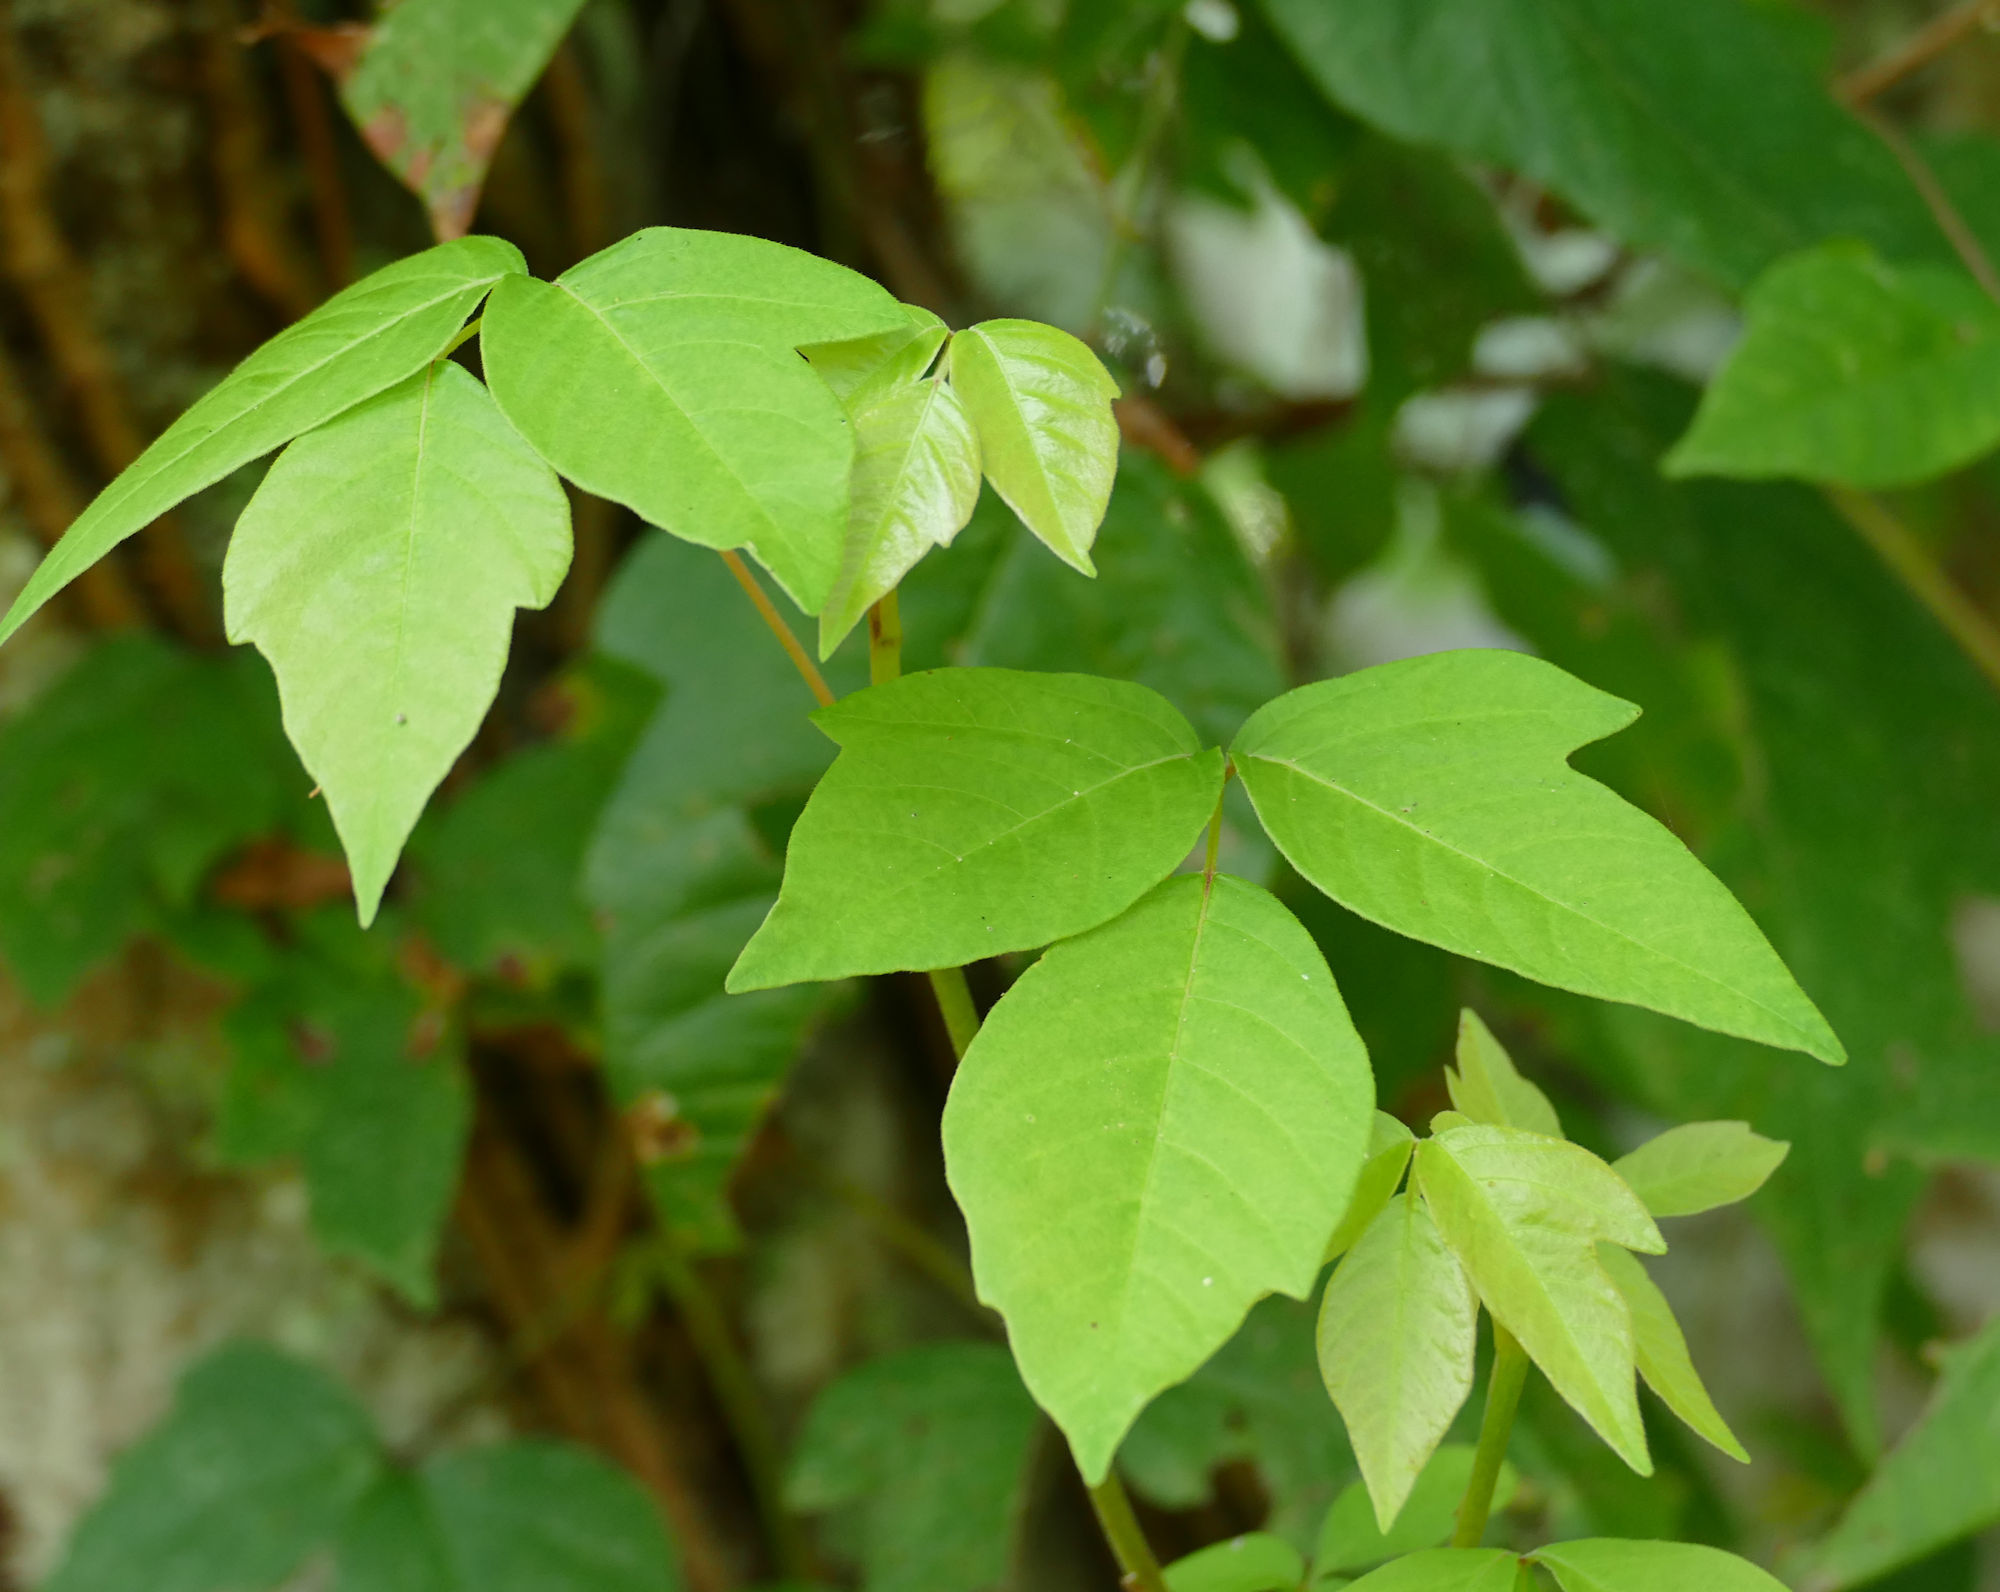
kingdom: Plantae
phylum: Tracheophyta
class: Magnoliopsida
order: Sapindales
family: Anacardiaceae
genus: Toxicodendron
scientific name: Toxicodendron radicans
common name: Poison ivy
